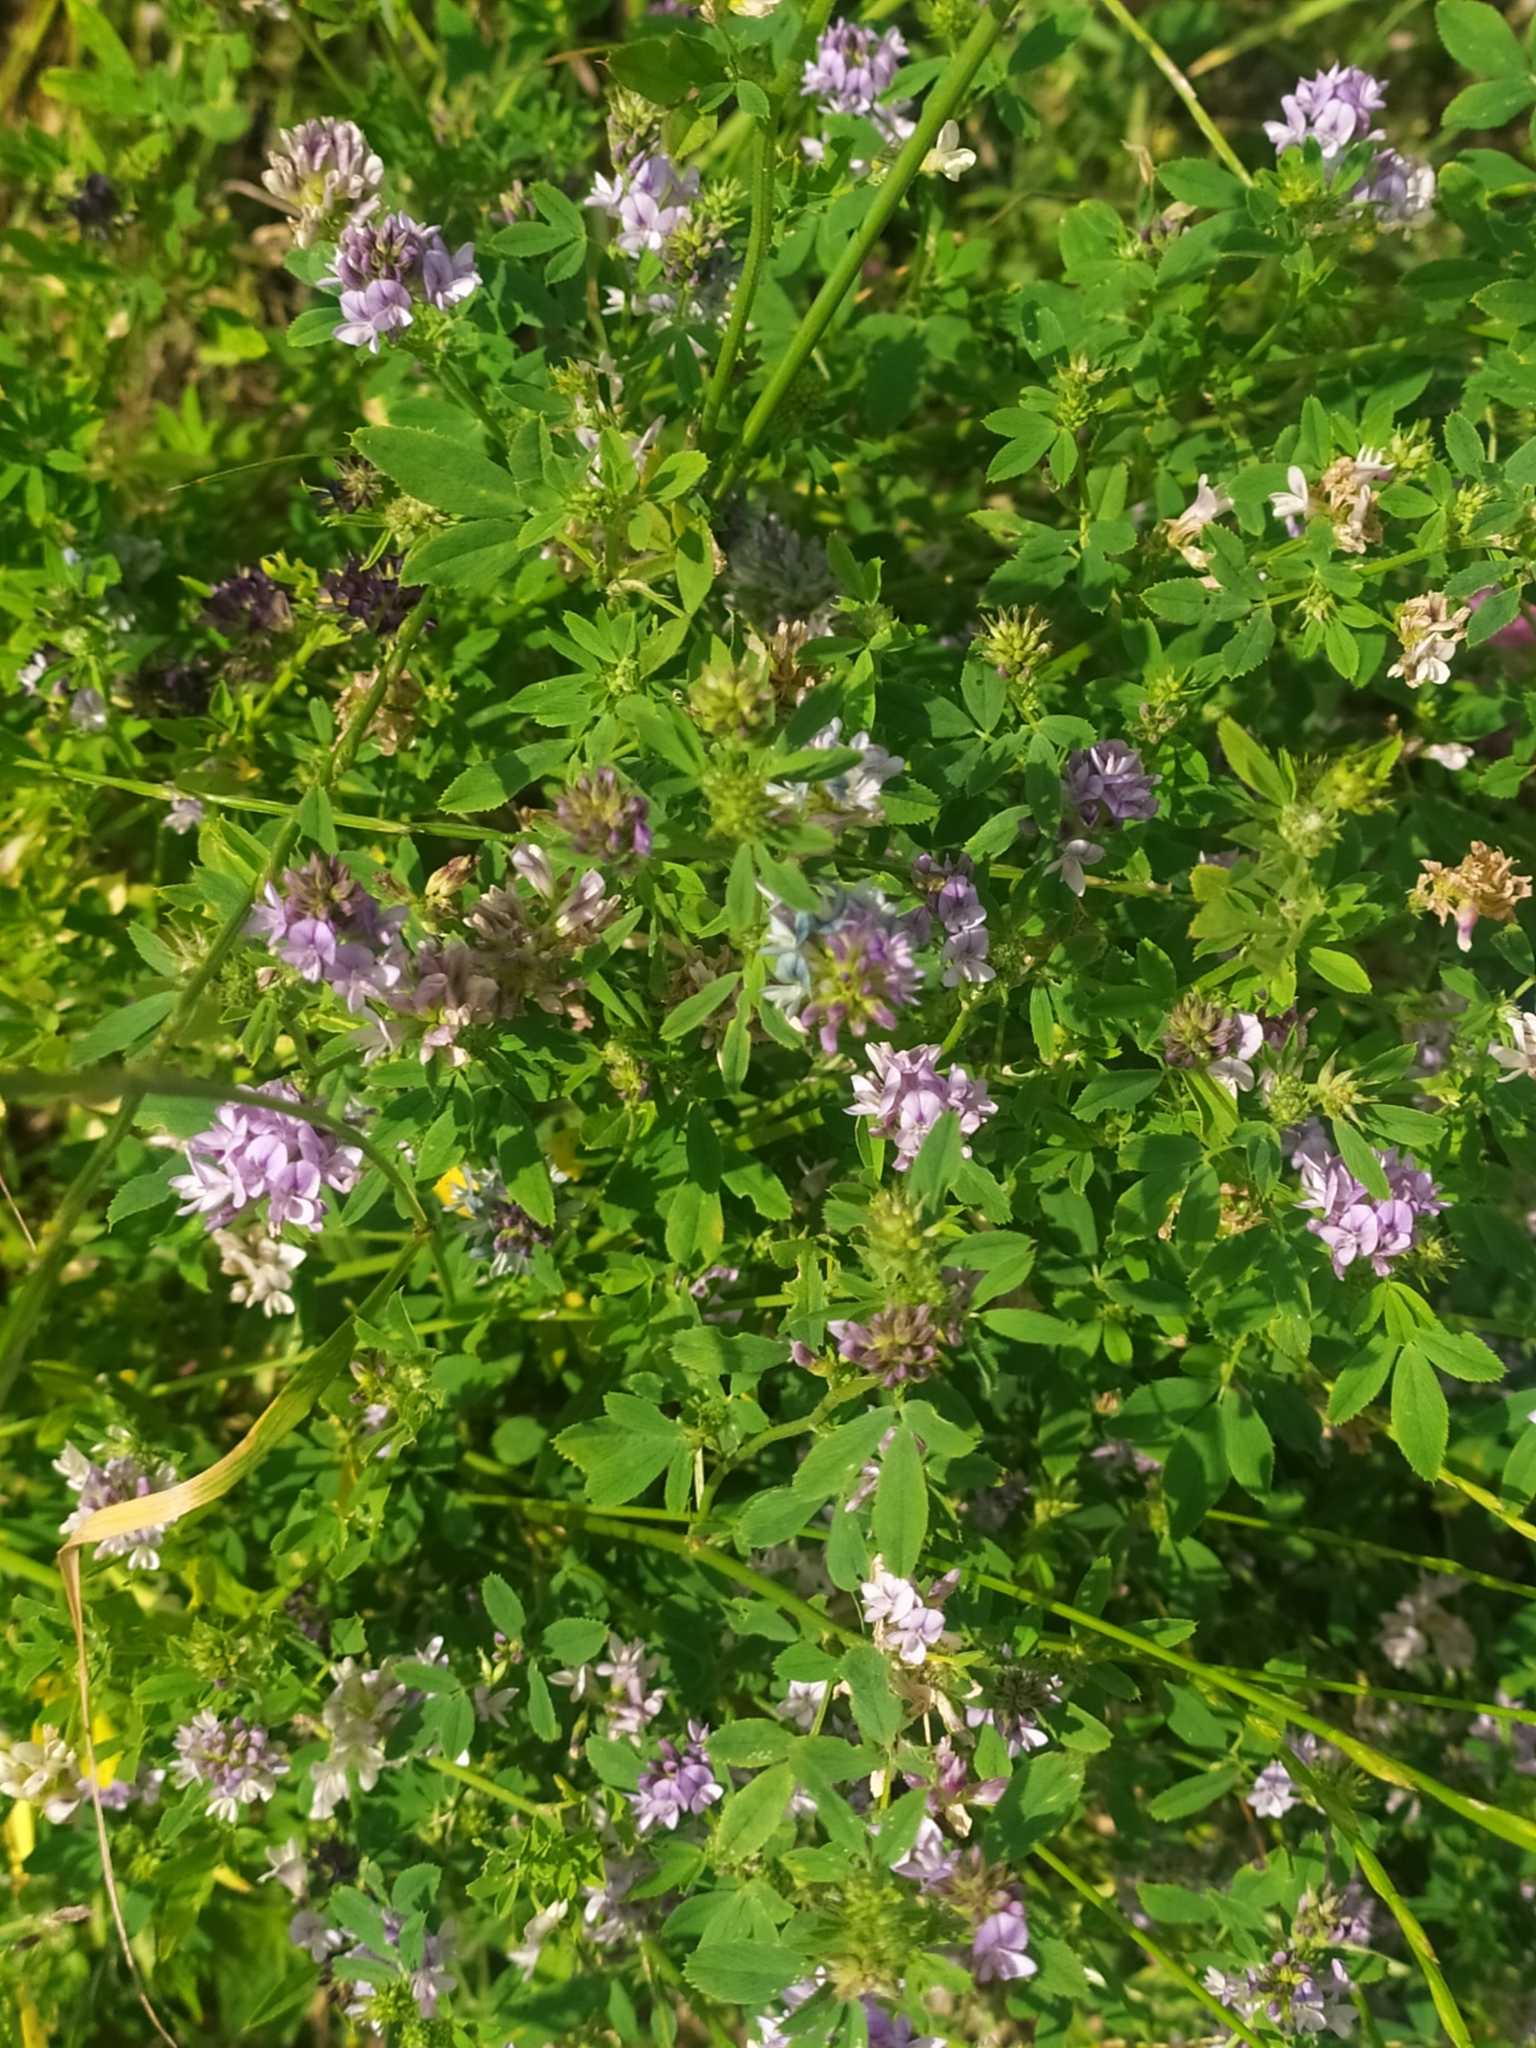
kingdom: Plantae
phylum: Tracheophyta
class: Magnoliopsida
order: Fabales
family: Fabaceae
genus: Medicago
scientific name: Medicago sativa
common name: Alfalfa
